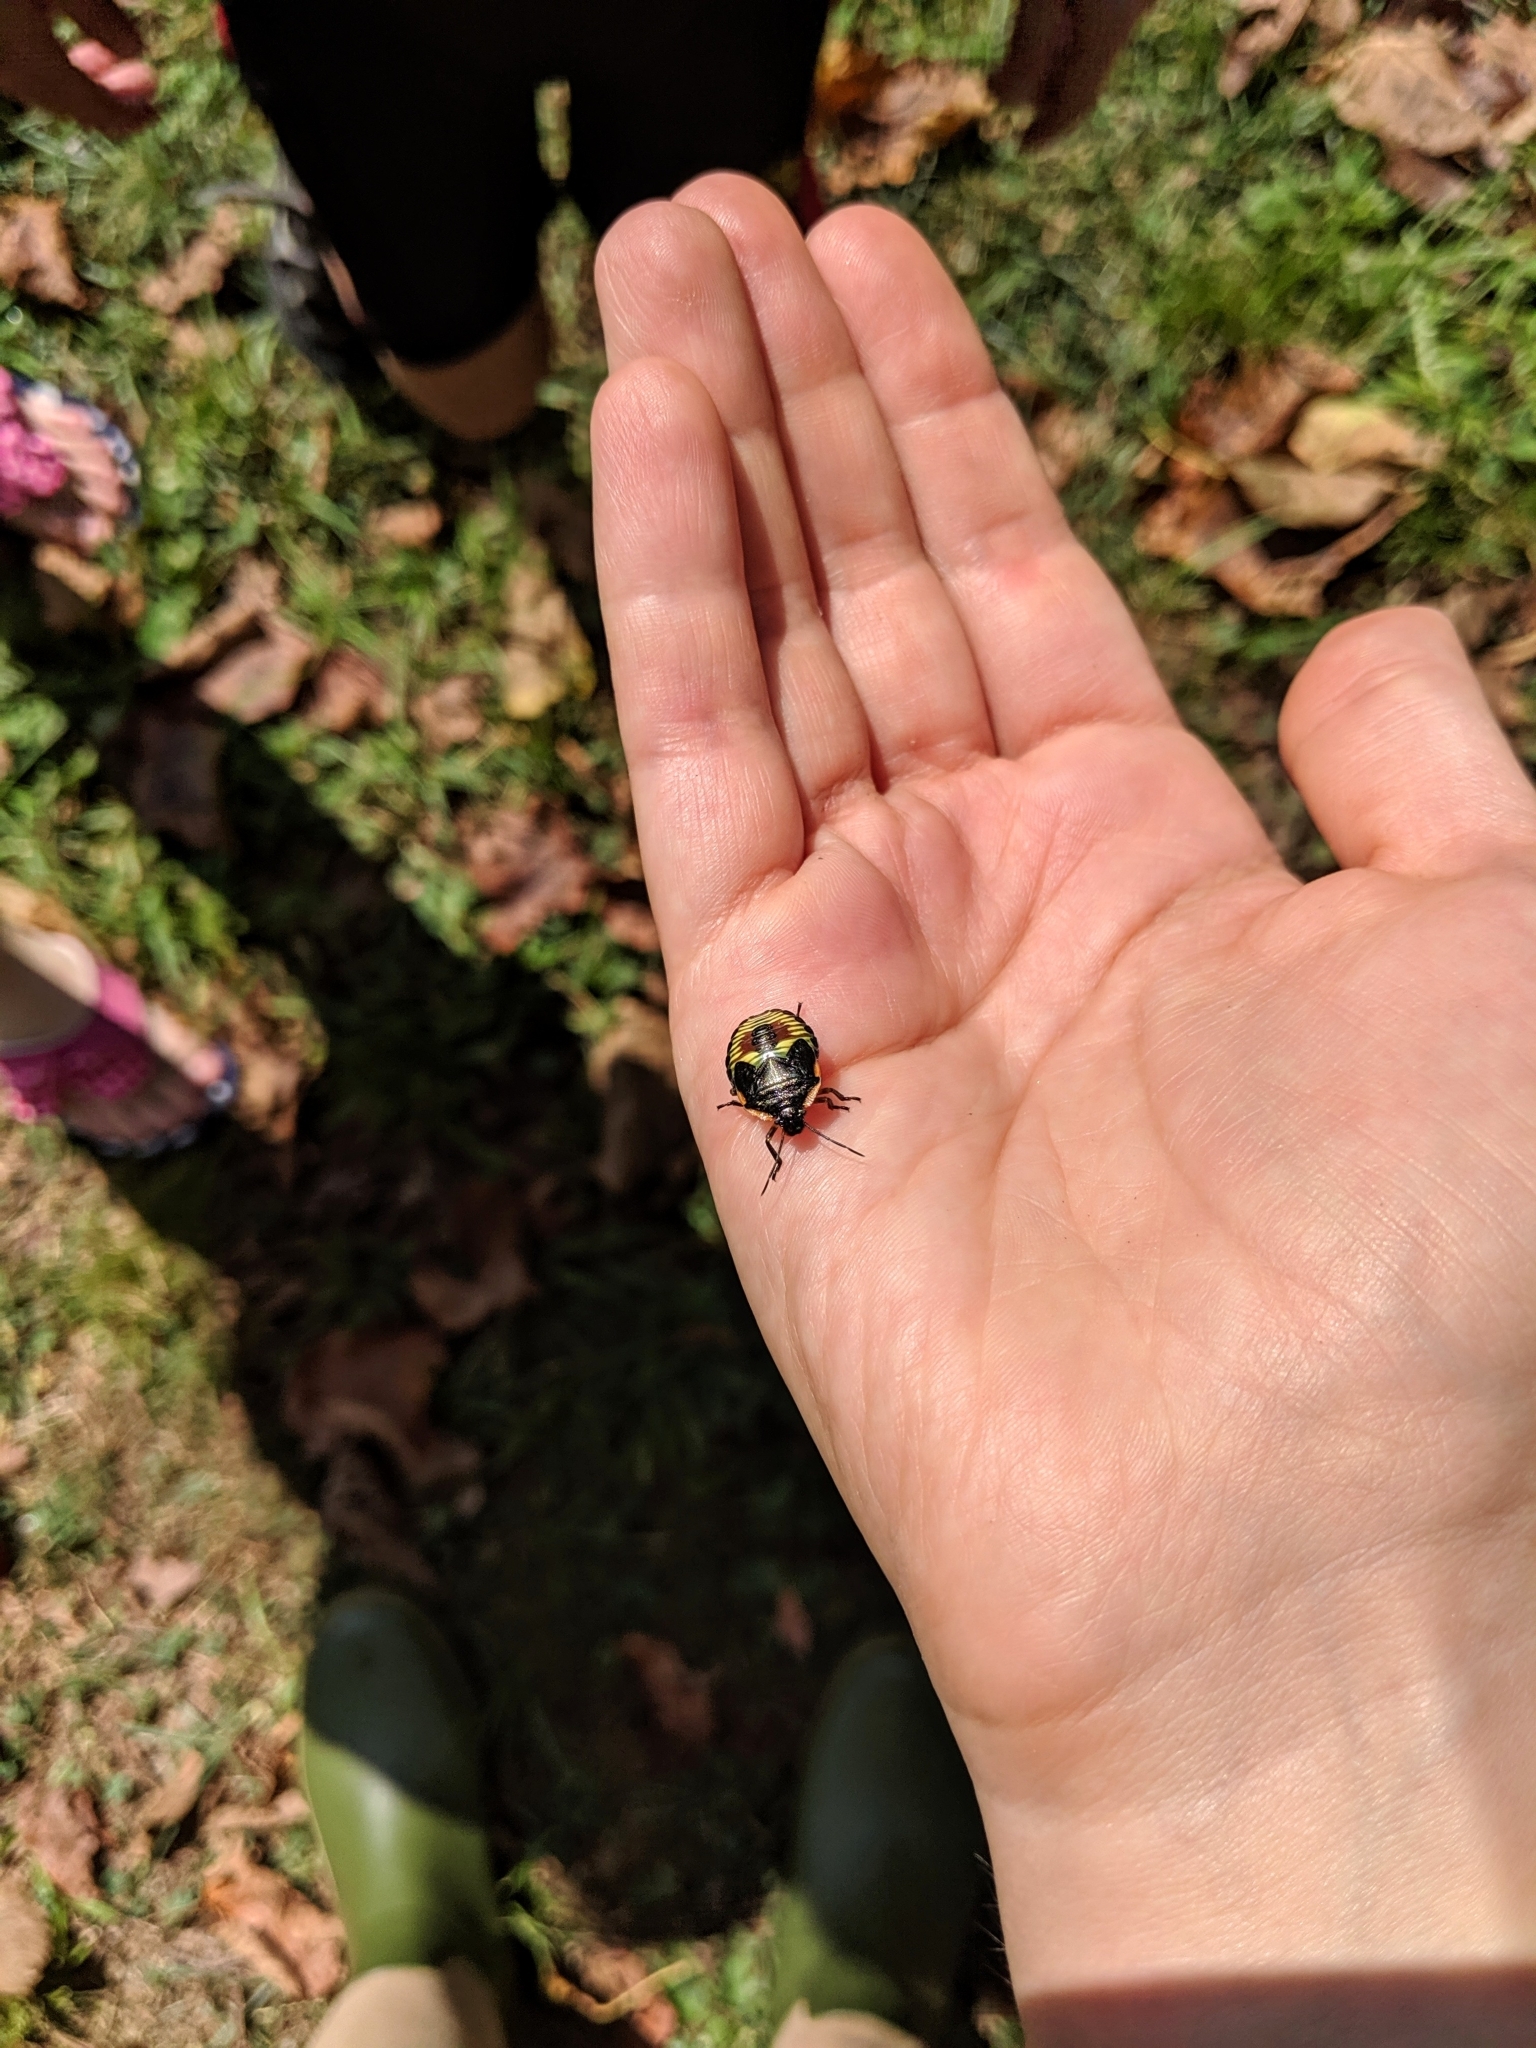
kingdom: Animalia
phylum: Arthropoda
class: Insecta
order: Hemiptera
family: Pentatomidae
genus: Chinavia
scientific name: Chinavia hilaris
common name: Green stink bug
